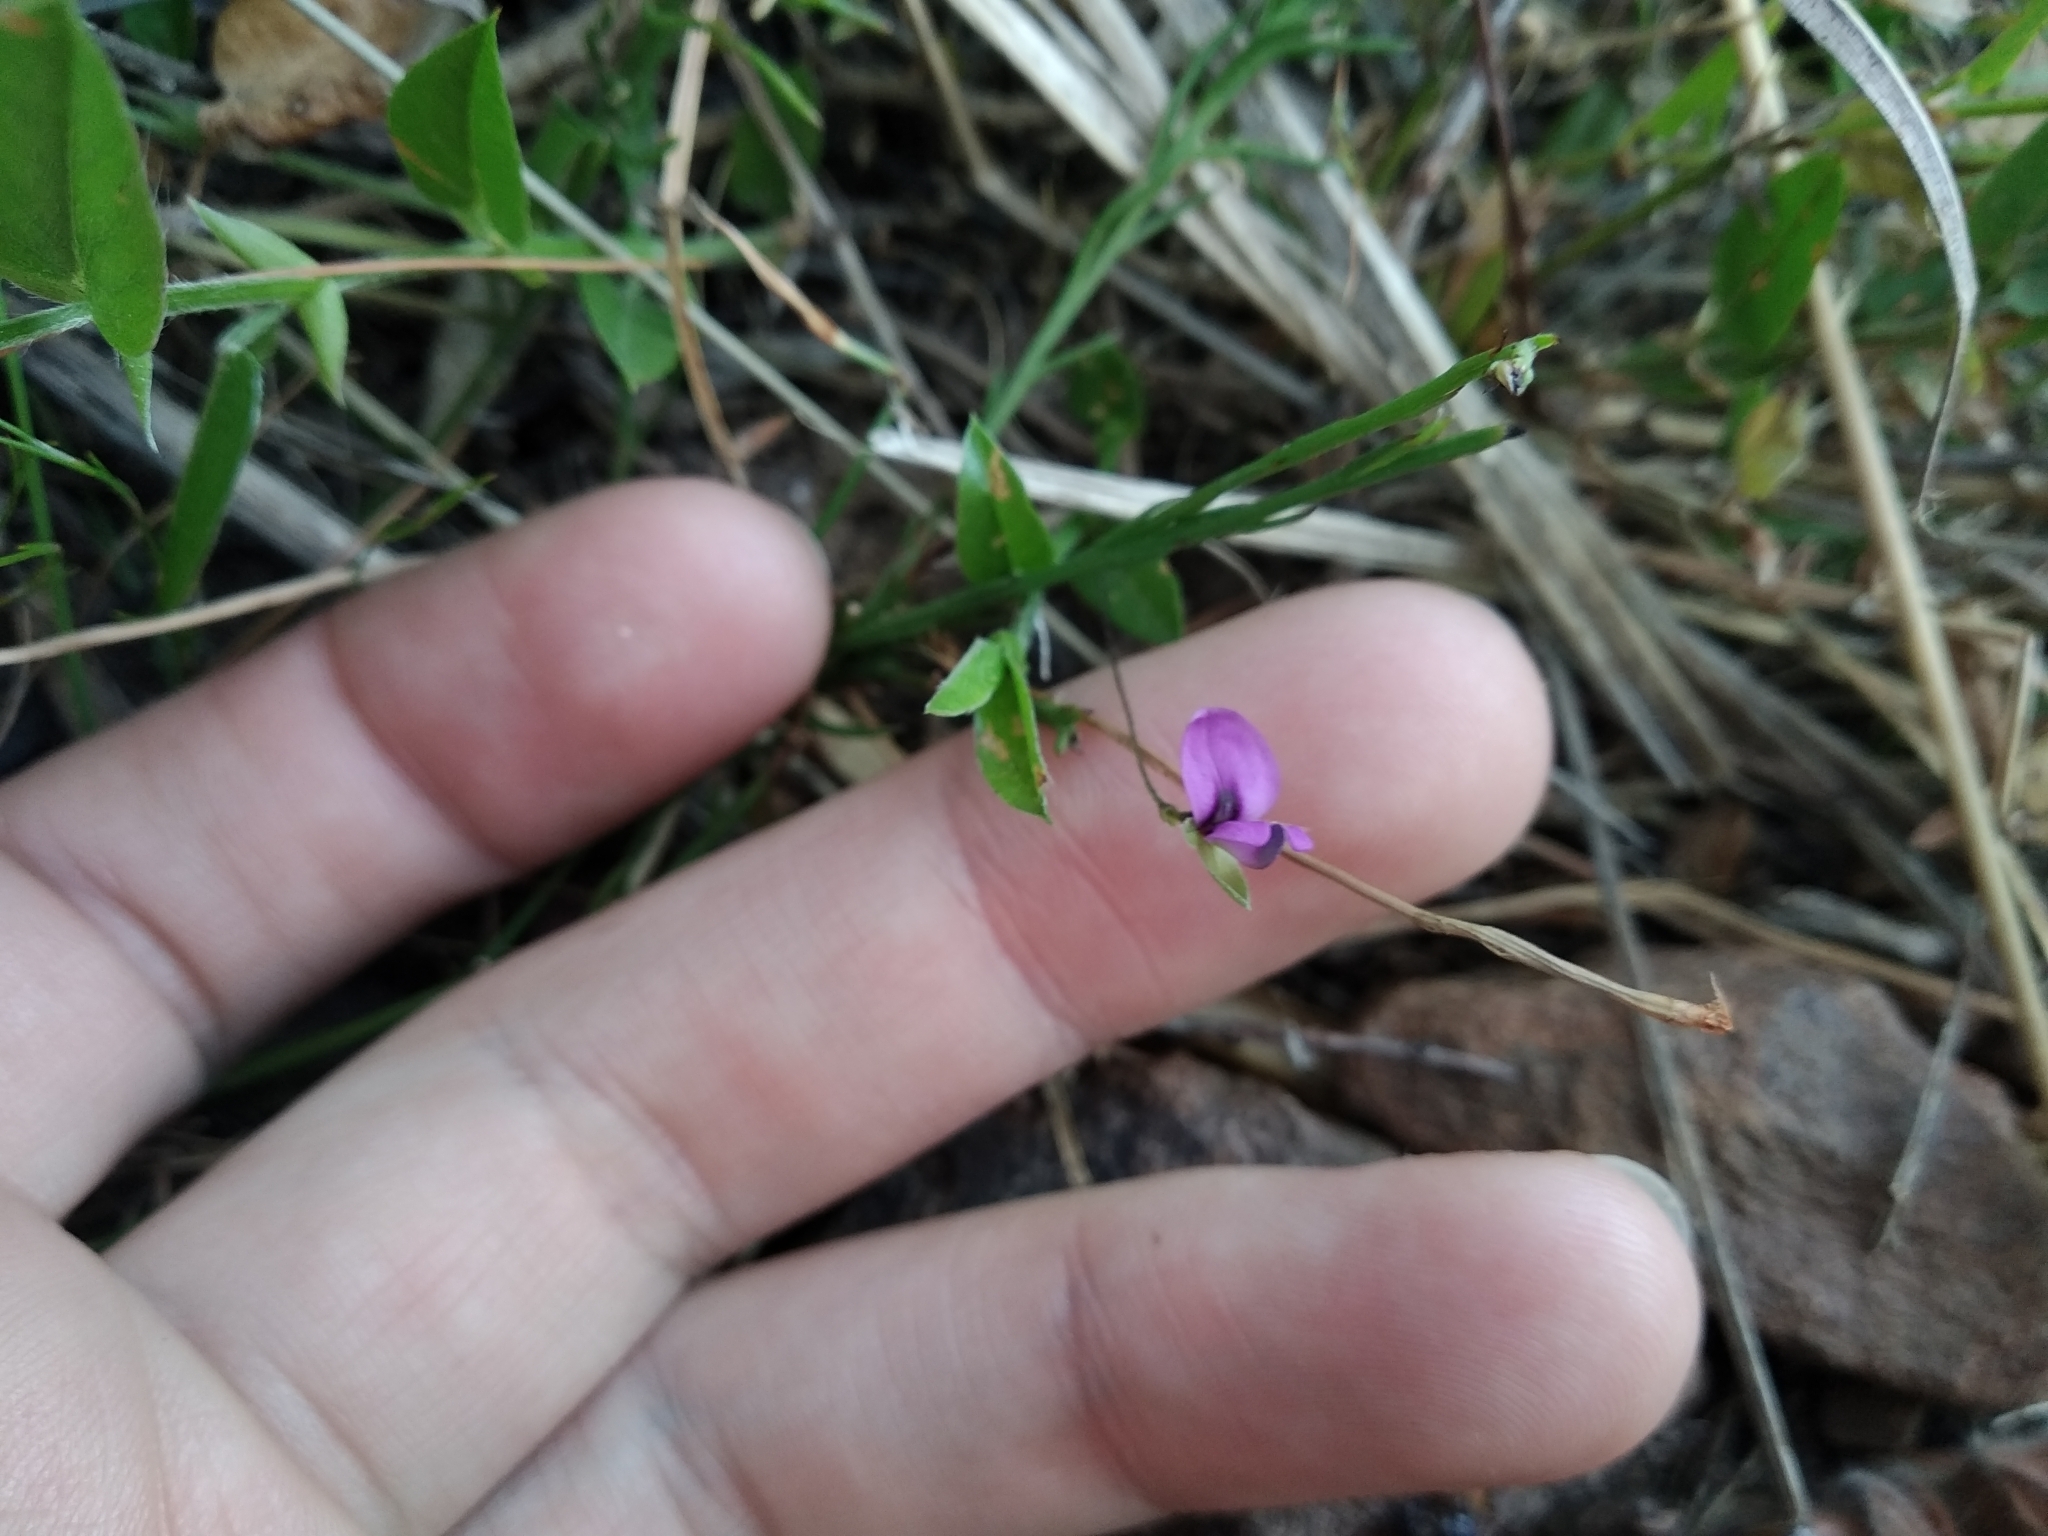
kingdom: Plantae
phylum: Tracheophyta
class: Magnoliopsida
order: Fabales
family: Fabaceae
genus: Psoralea
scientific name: Psoralea monophylla
